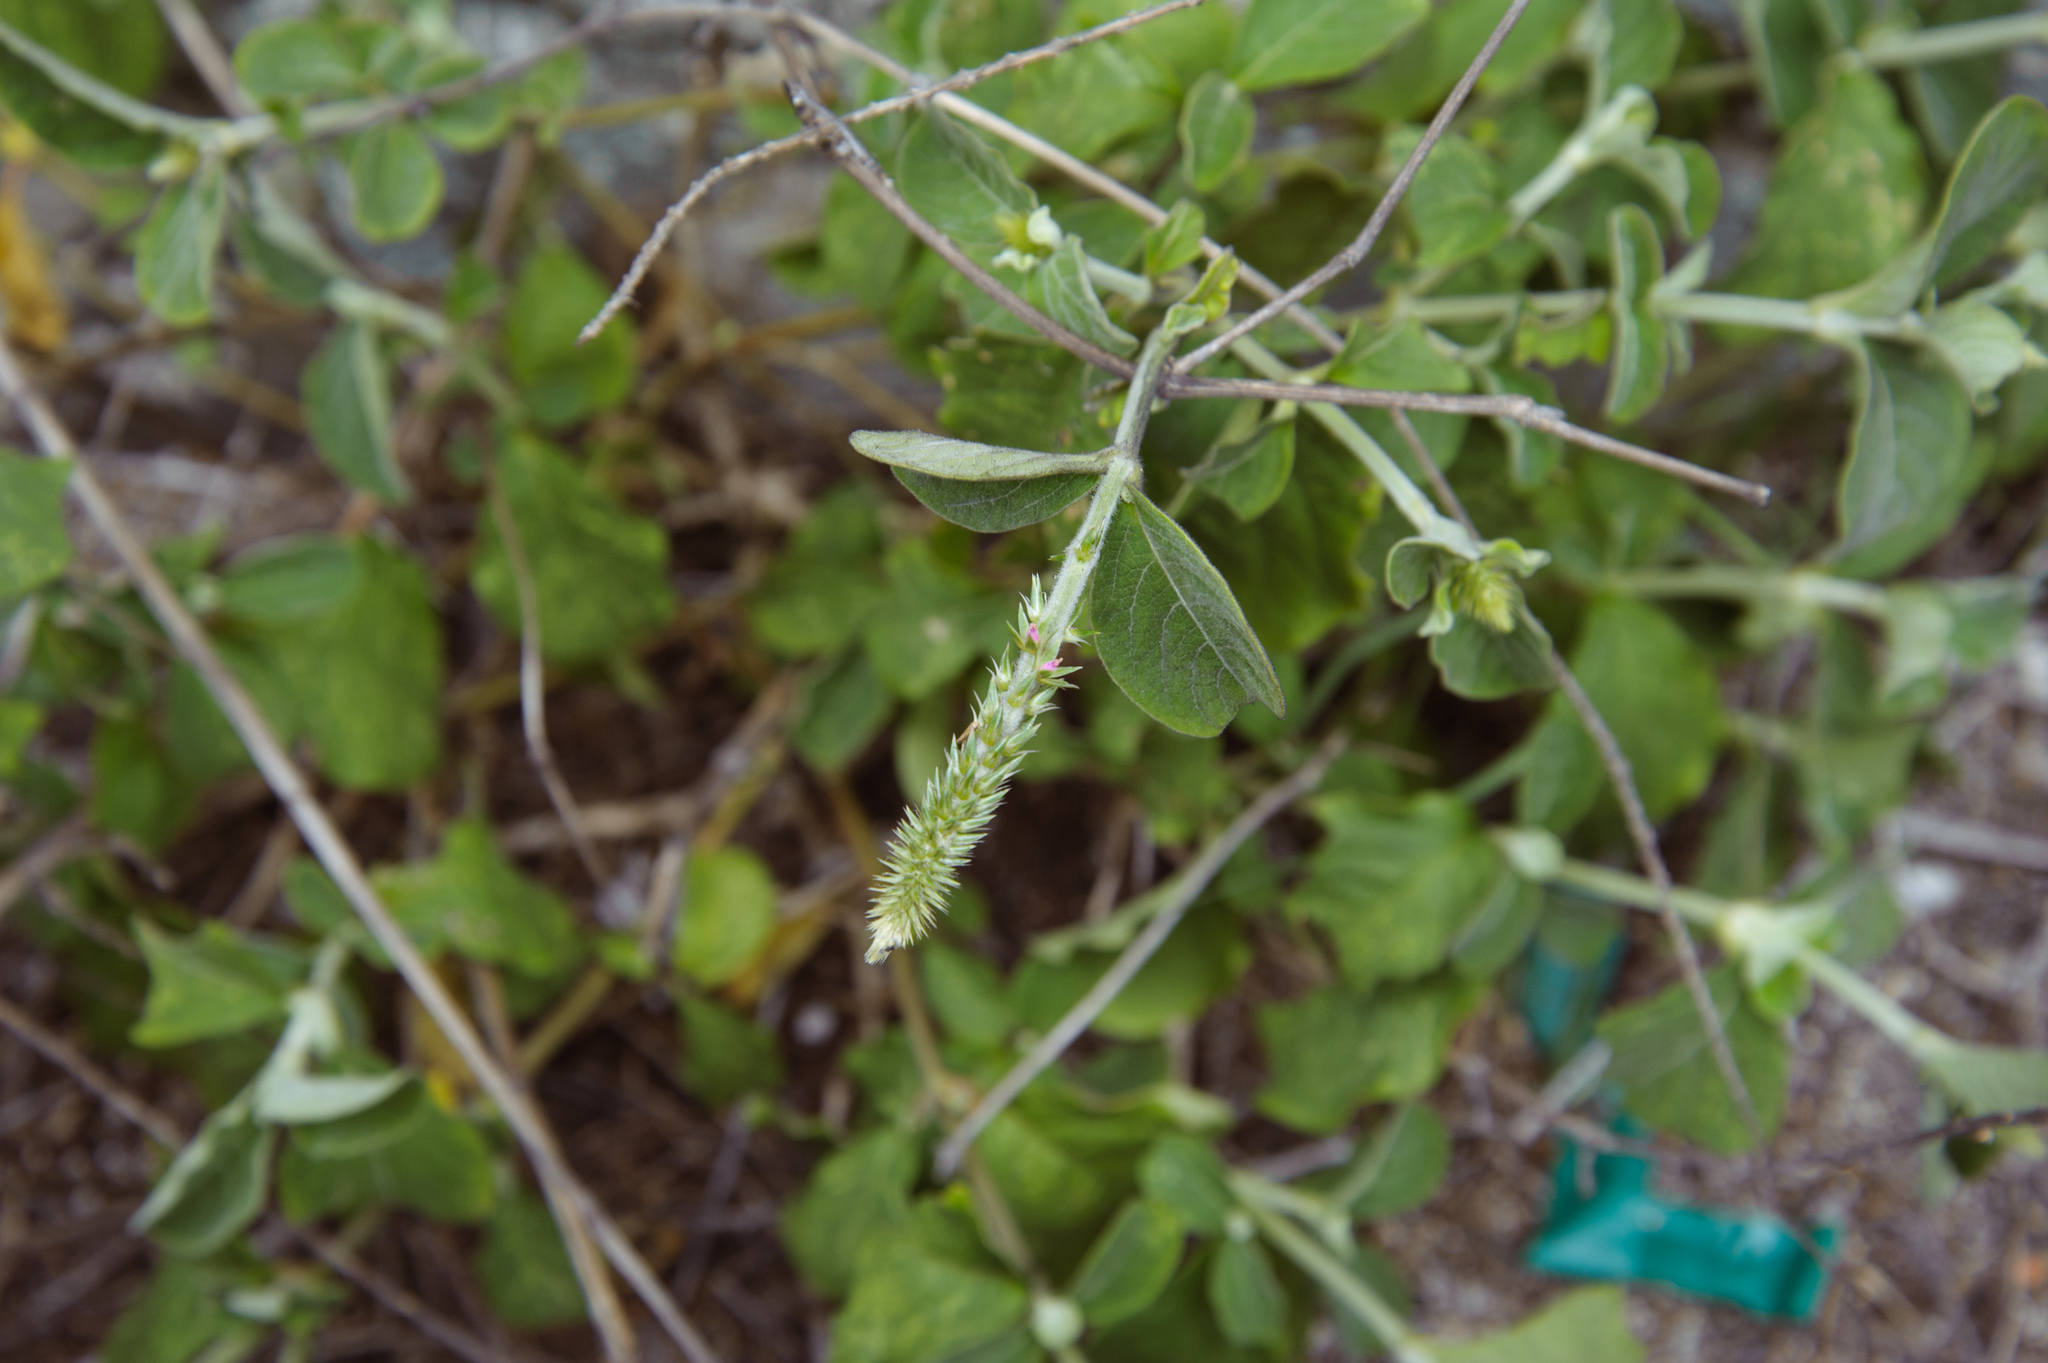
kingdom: Plantae
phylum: Tracheophyta
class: Magnoliopsida
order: Caryophyllales
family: Amaranthaceae
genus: Achyranthes
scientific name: Achyranthes aspera
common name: Devil's horsewhip
